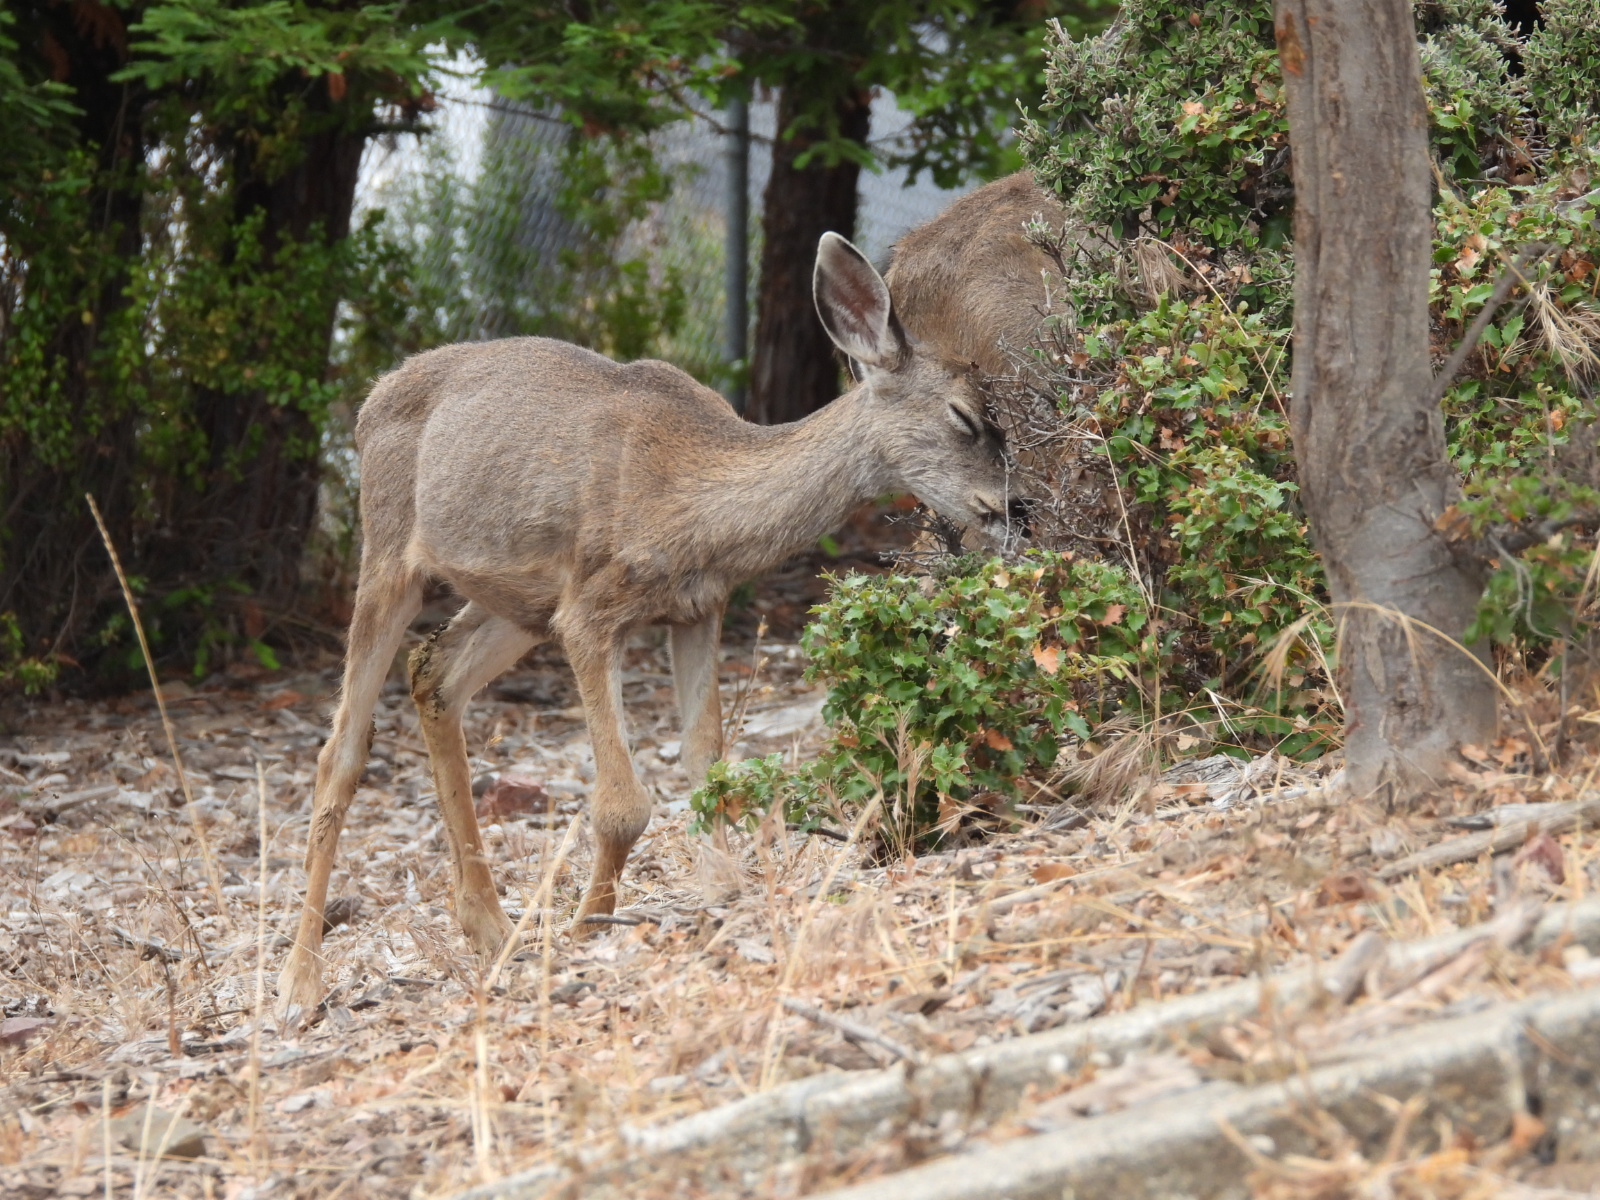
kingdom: Animalia
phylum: Chordata
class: Mammalia
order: Artiodactyla
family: Cervidae
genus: Odocoileus
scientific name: Odocoileus hemionus
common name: Mule deer
